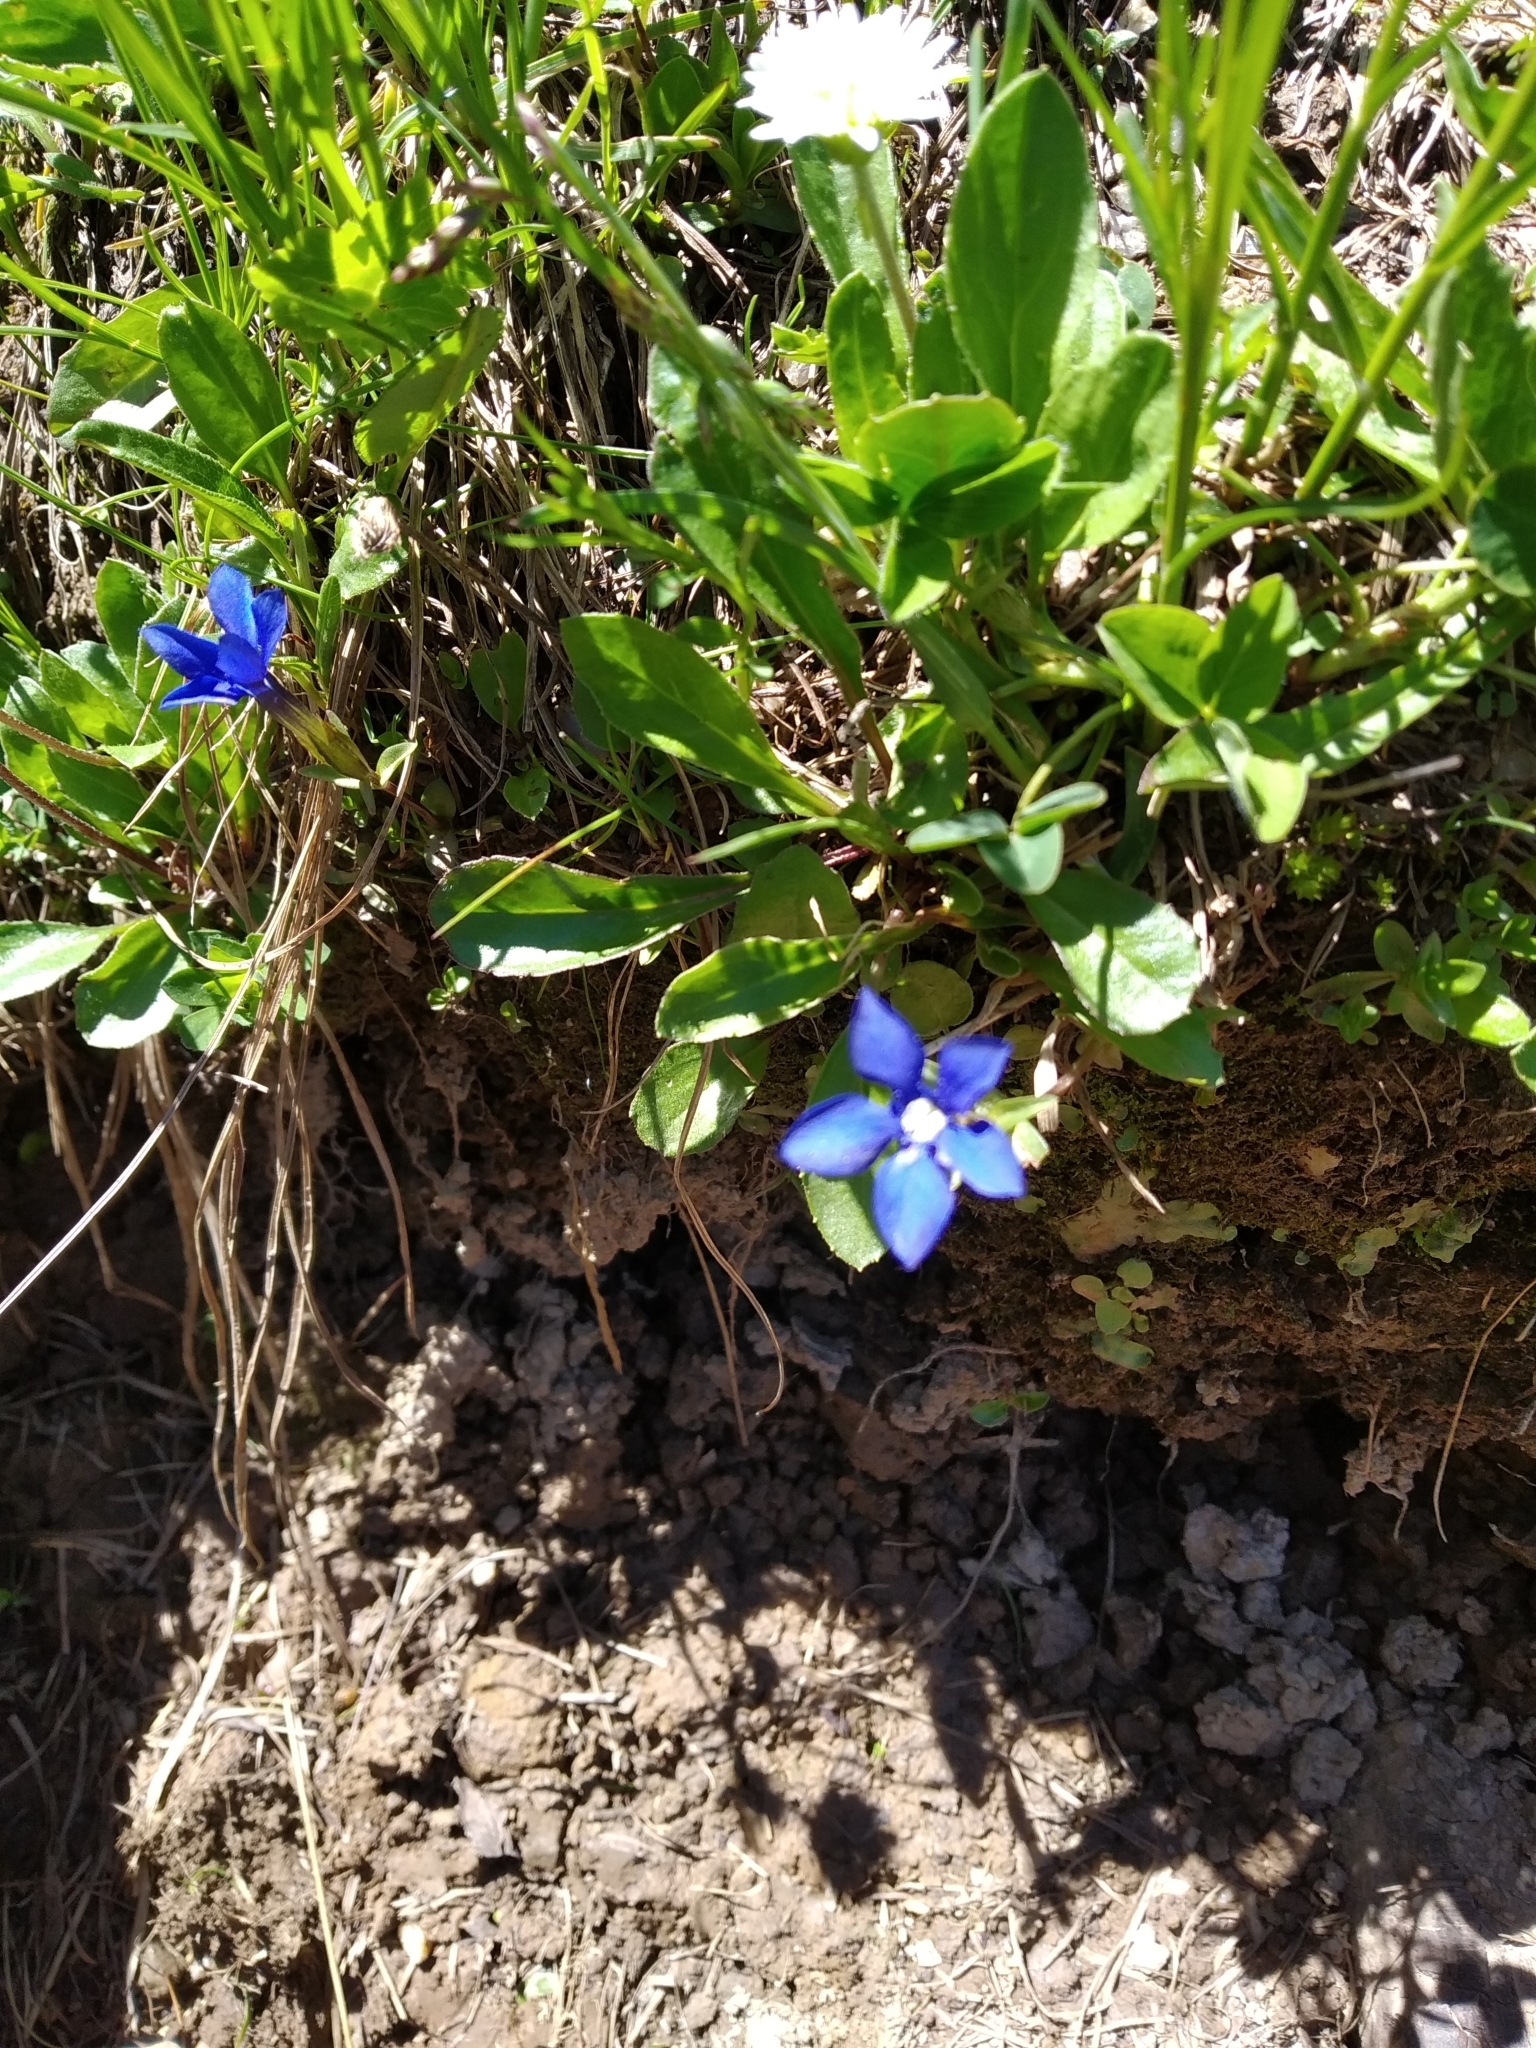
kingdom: Plantae
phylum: Tracheophyta
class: Magnoliopsida
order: Gentianales
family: Gentianaceae
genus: Gentiana
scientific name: Gentiana verna
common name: Spring gentian
